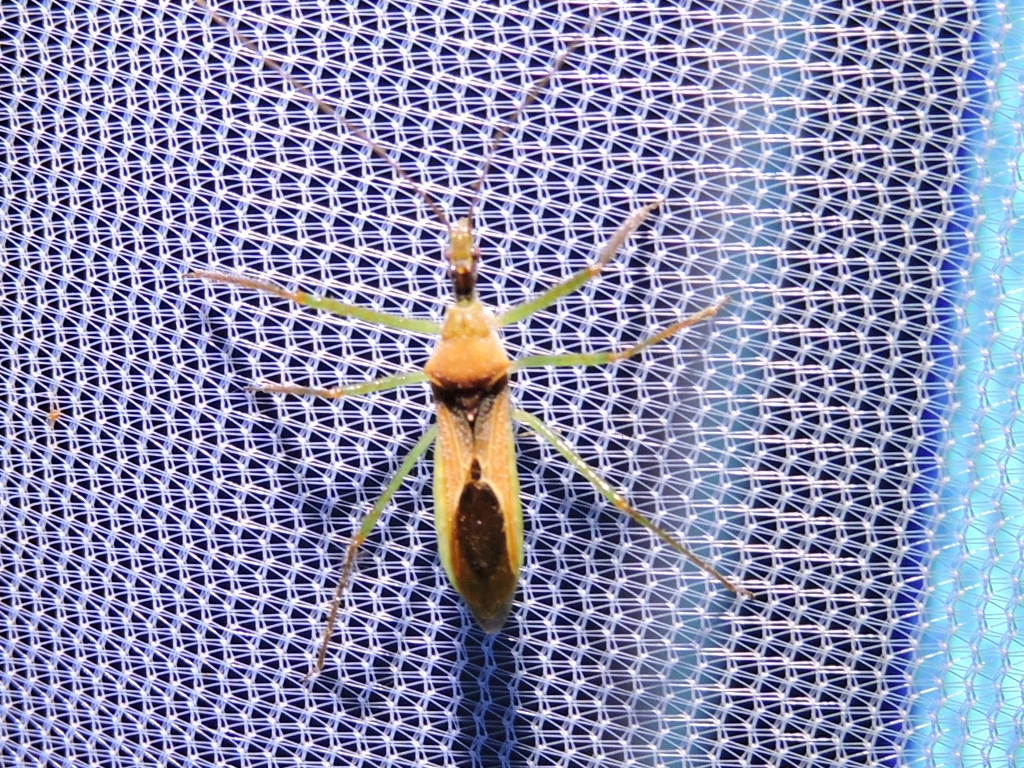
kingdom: Animalia
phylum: Arthropoda
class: Insecta
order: Hemiptera
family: Reduviidae
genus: Zelus
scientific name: Zelus renardii
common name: Assassin bug
